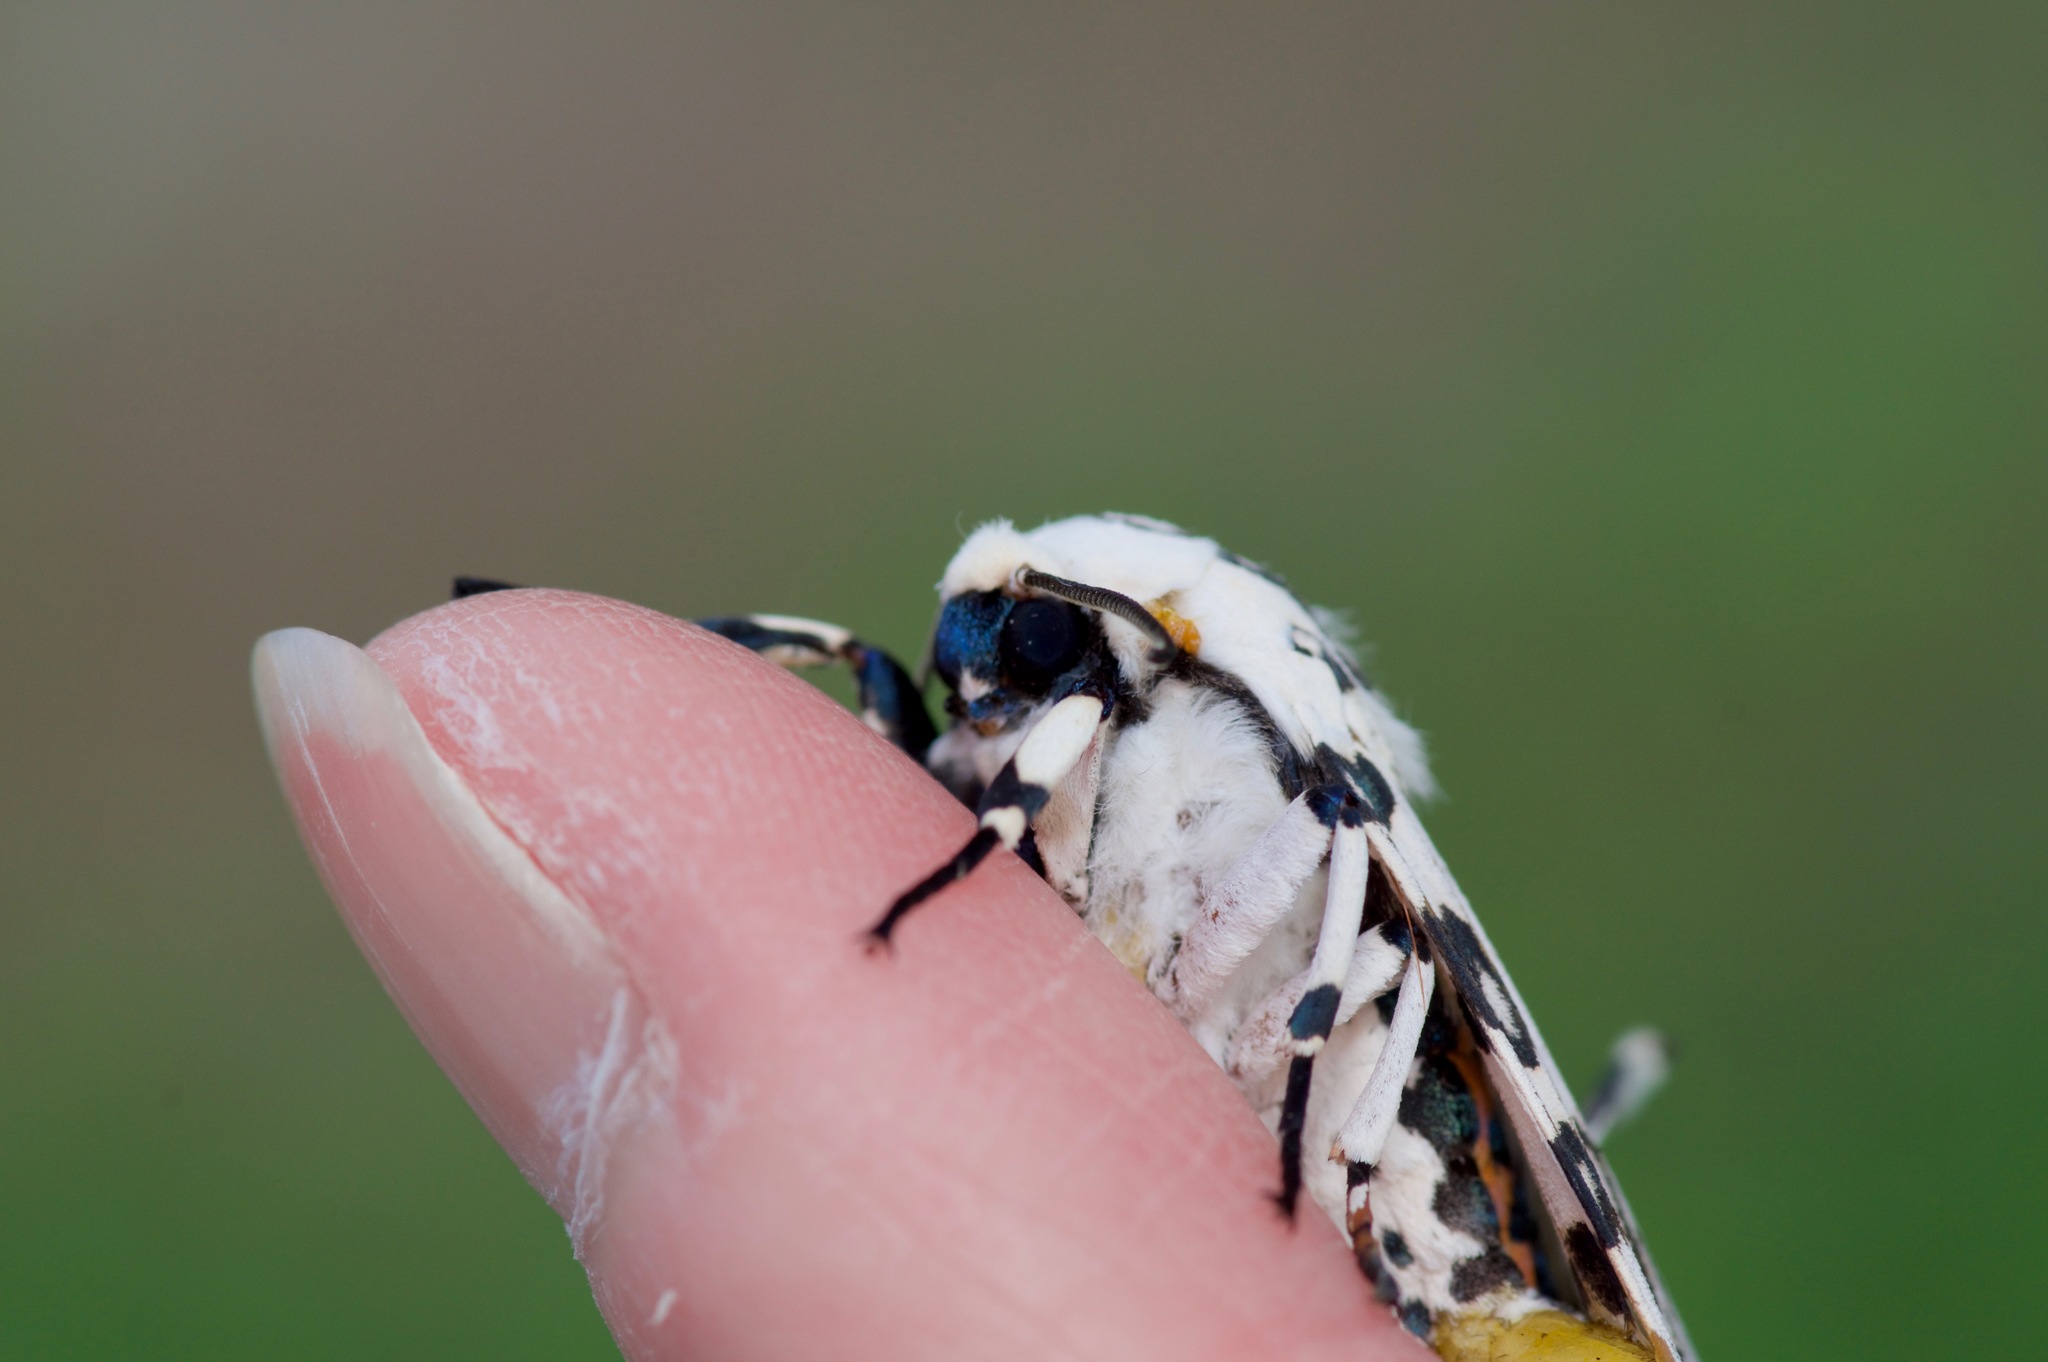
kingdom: Animalia
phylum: Arthropoda
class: Insecta
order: Lepidoptera
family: Erebidae
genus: Hypercompe
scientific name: Hypercompe caudata
